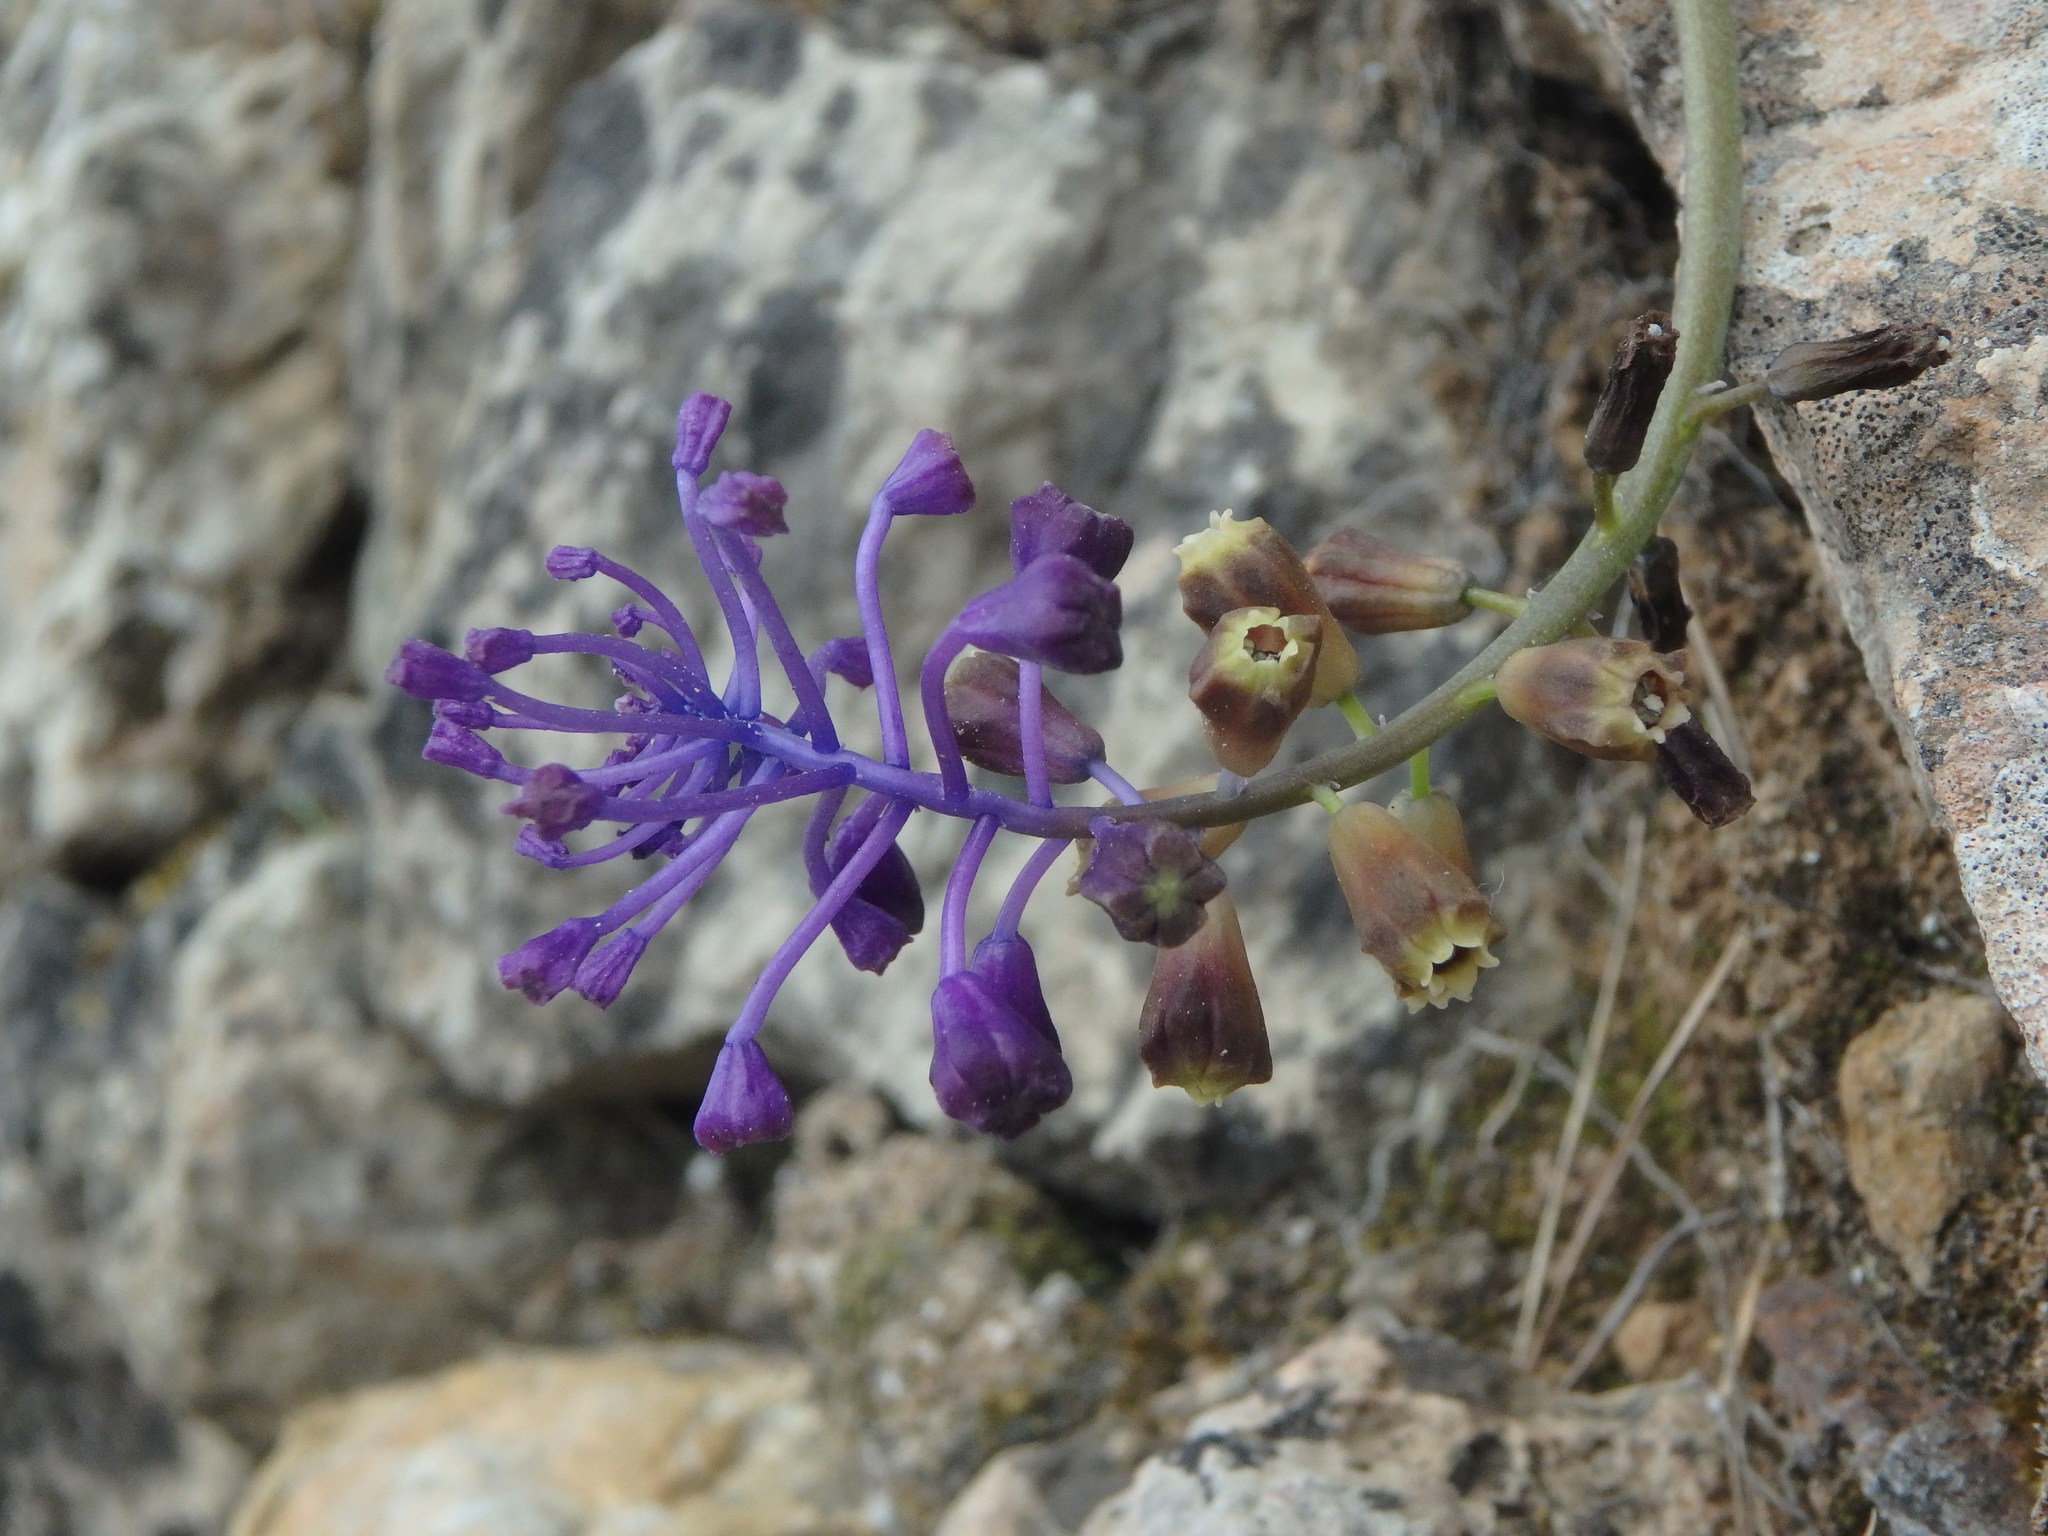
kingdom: Plantae
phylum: Tracheophyta
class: Liliopsida
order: Asparagales
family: Asparagaceae
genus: Muscari
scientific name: Muscari comosum
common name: Tassel hyacinth
